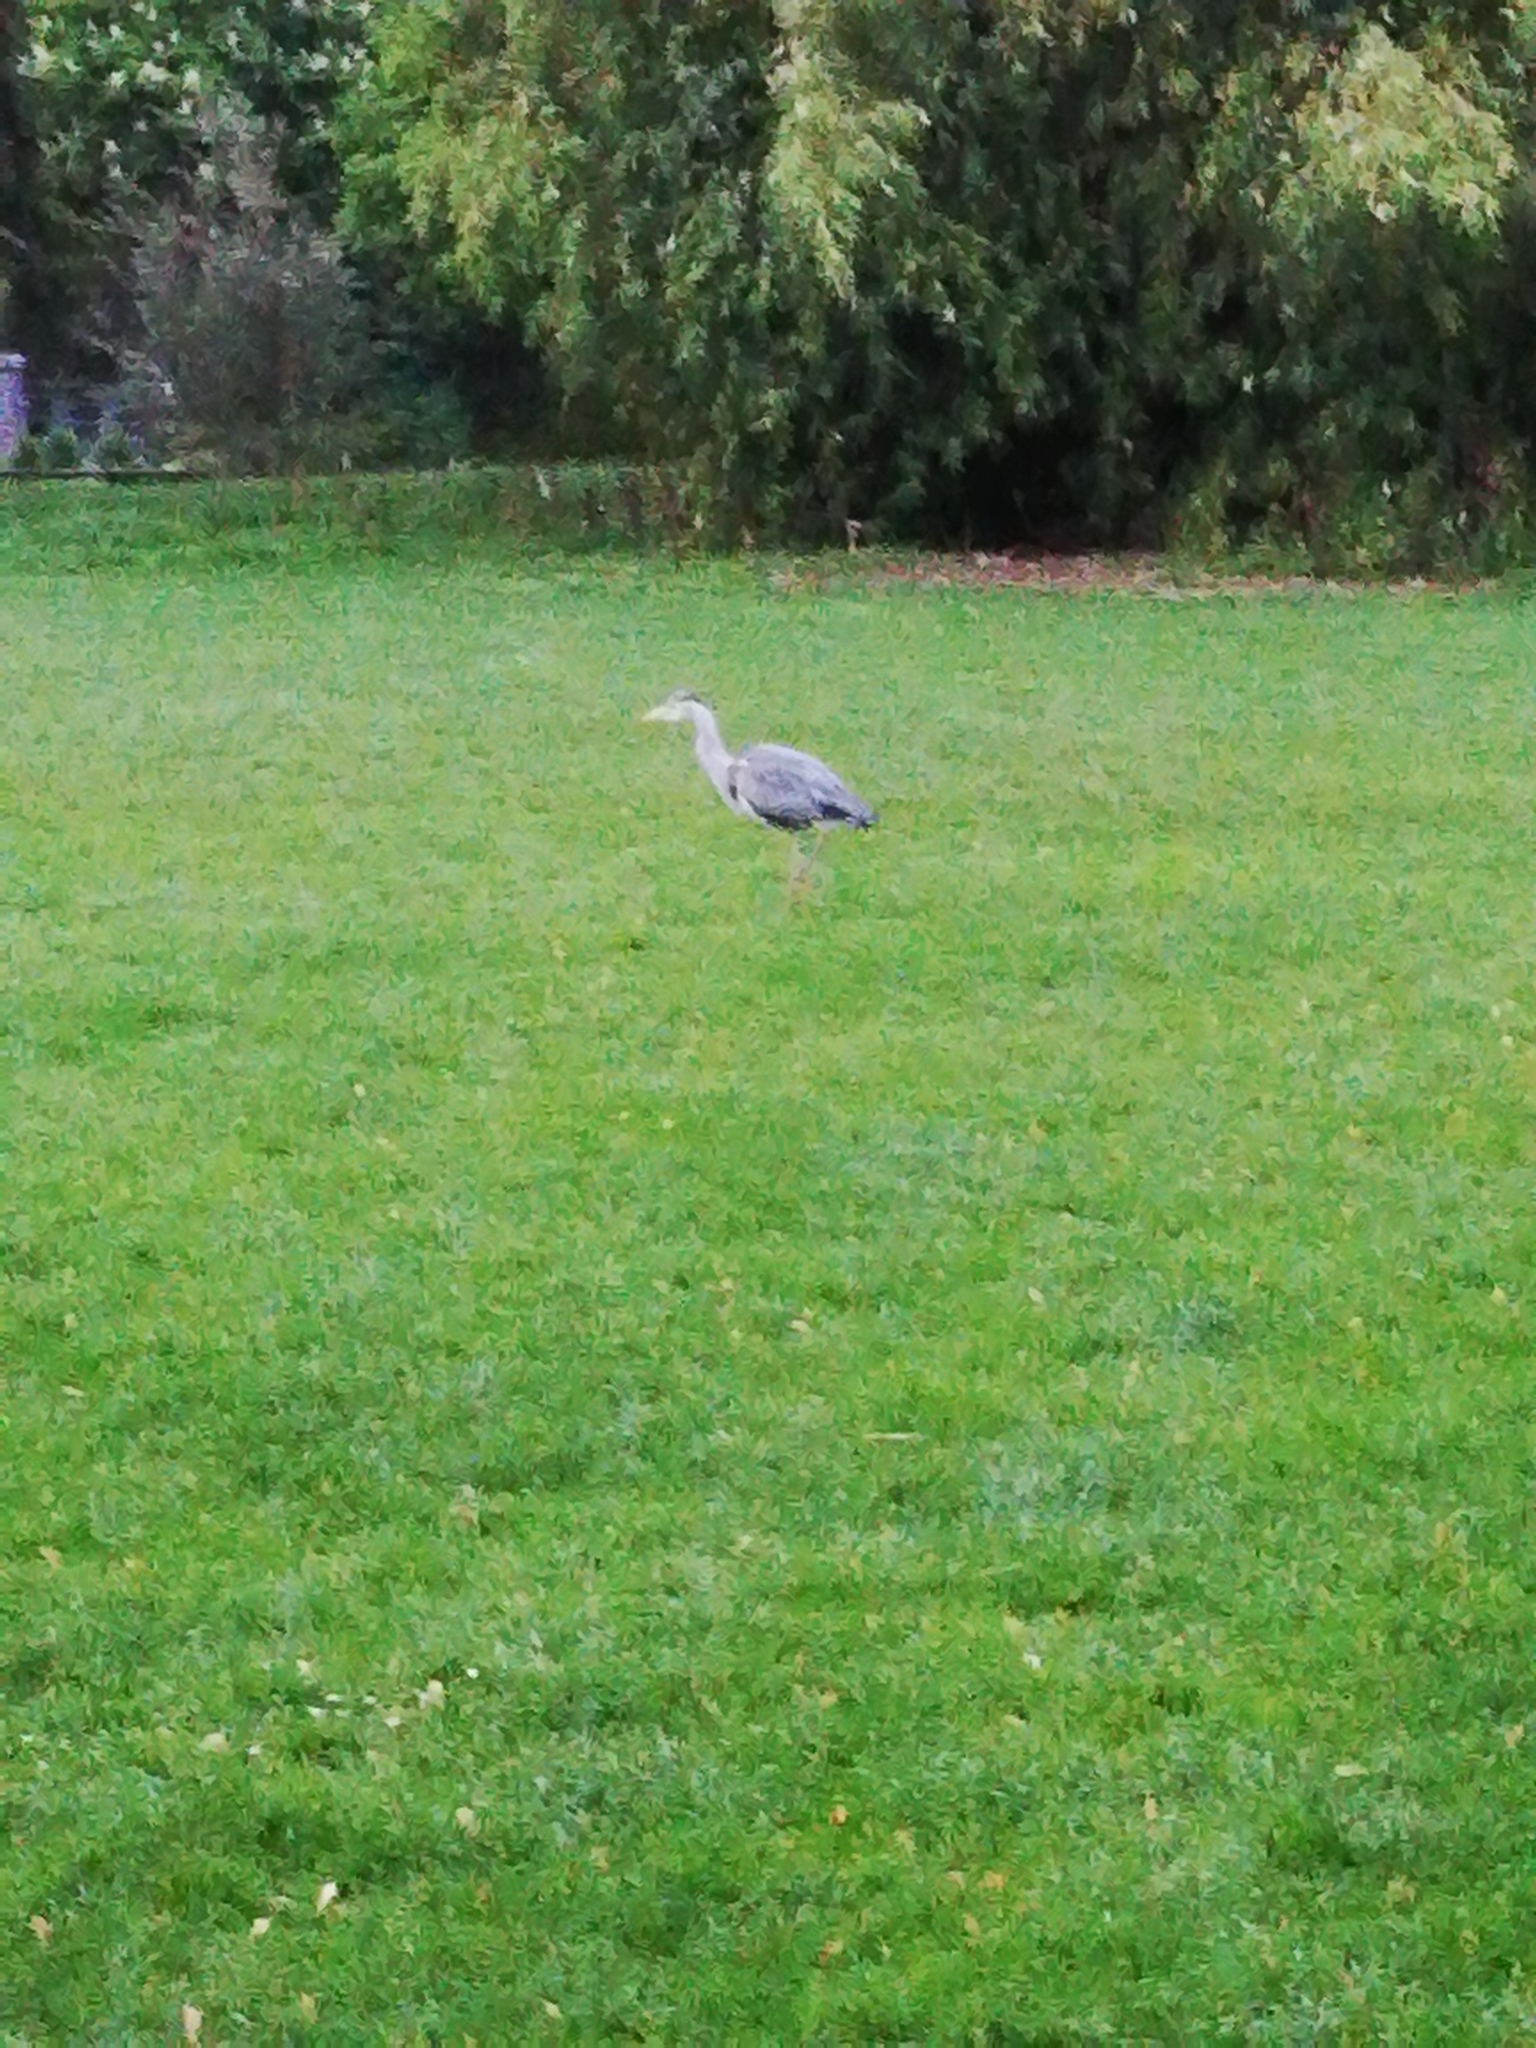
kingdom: Animalia
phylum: Chordata
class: Aves
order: Pelecaniformes
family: Ardeidae
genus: Ardea
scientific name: Ardea cinerea
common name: Grey heron
